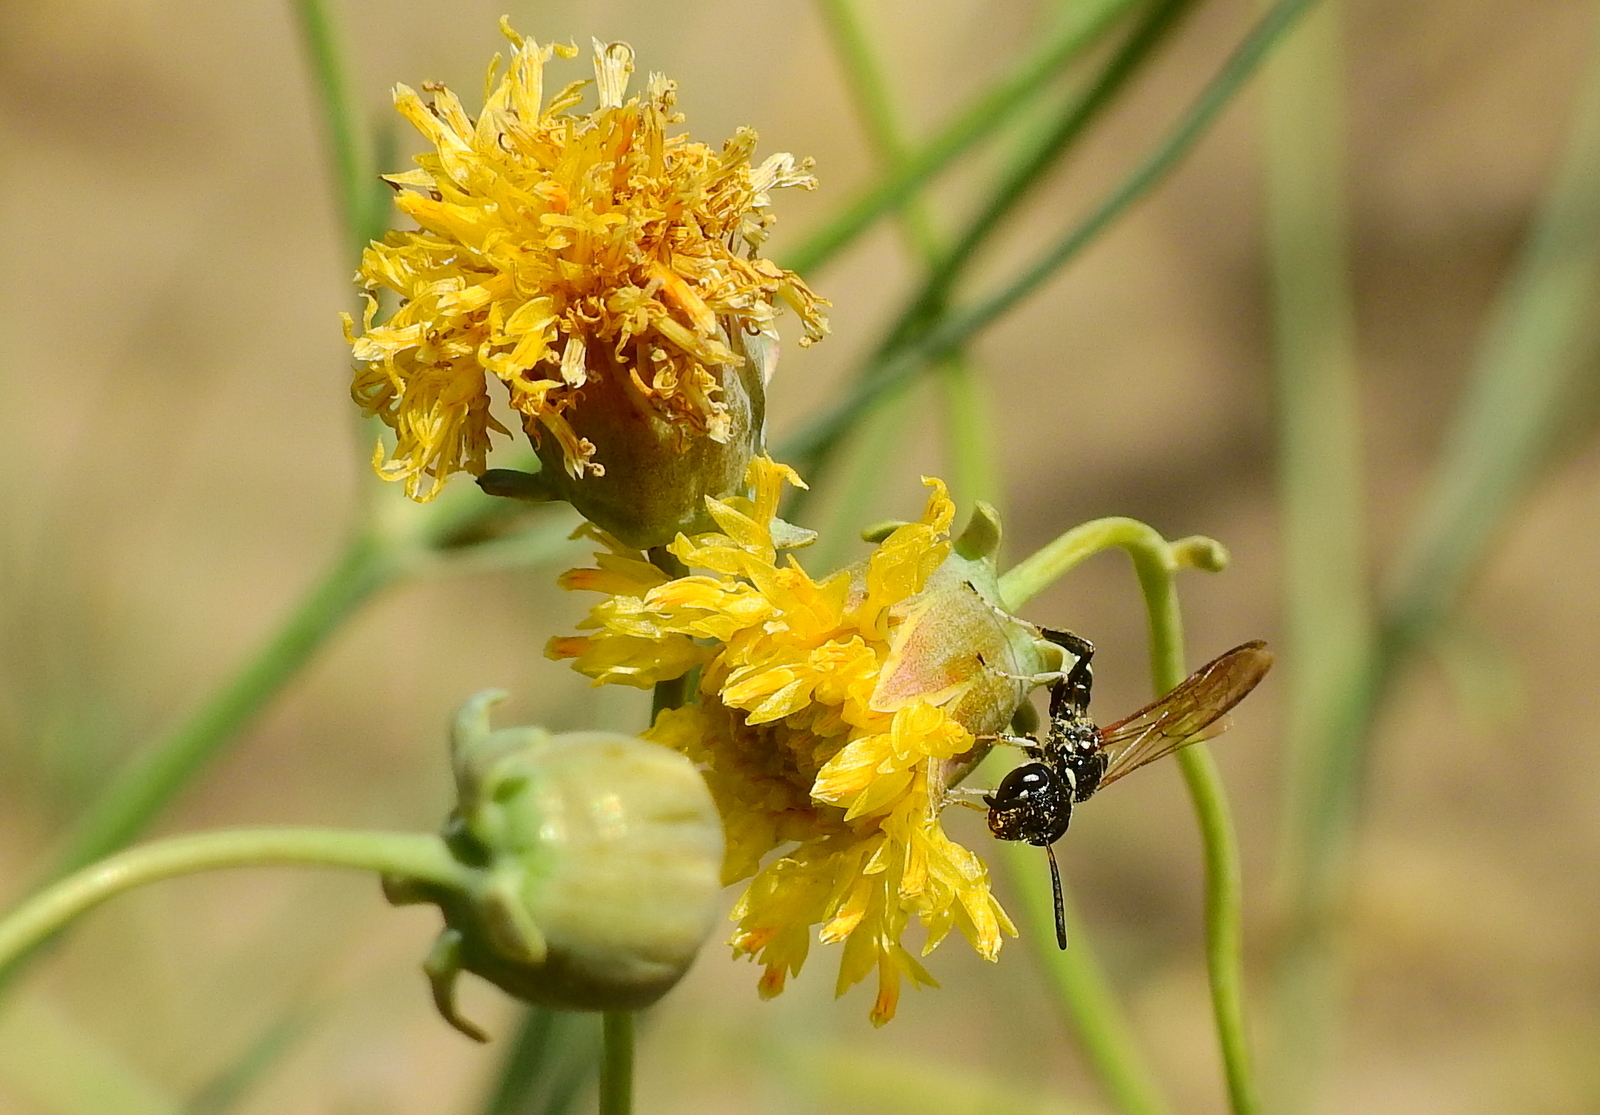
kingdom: Animalia
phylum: Arthropoda
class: Insecta
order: Hymenoptera
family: Crabronidae
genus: Trachypus
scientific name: Trachypus petiolatus
